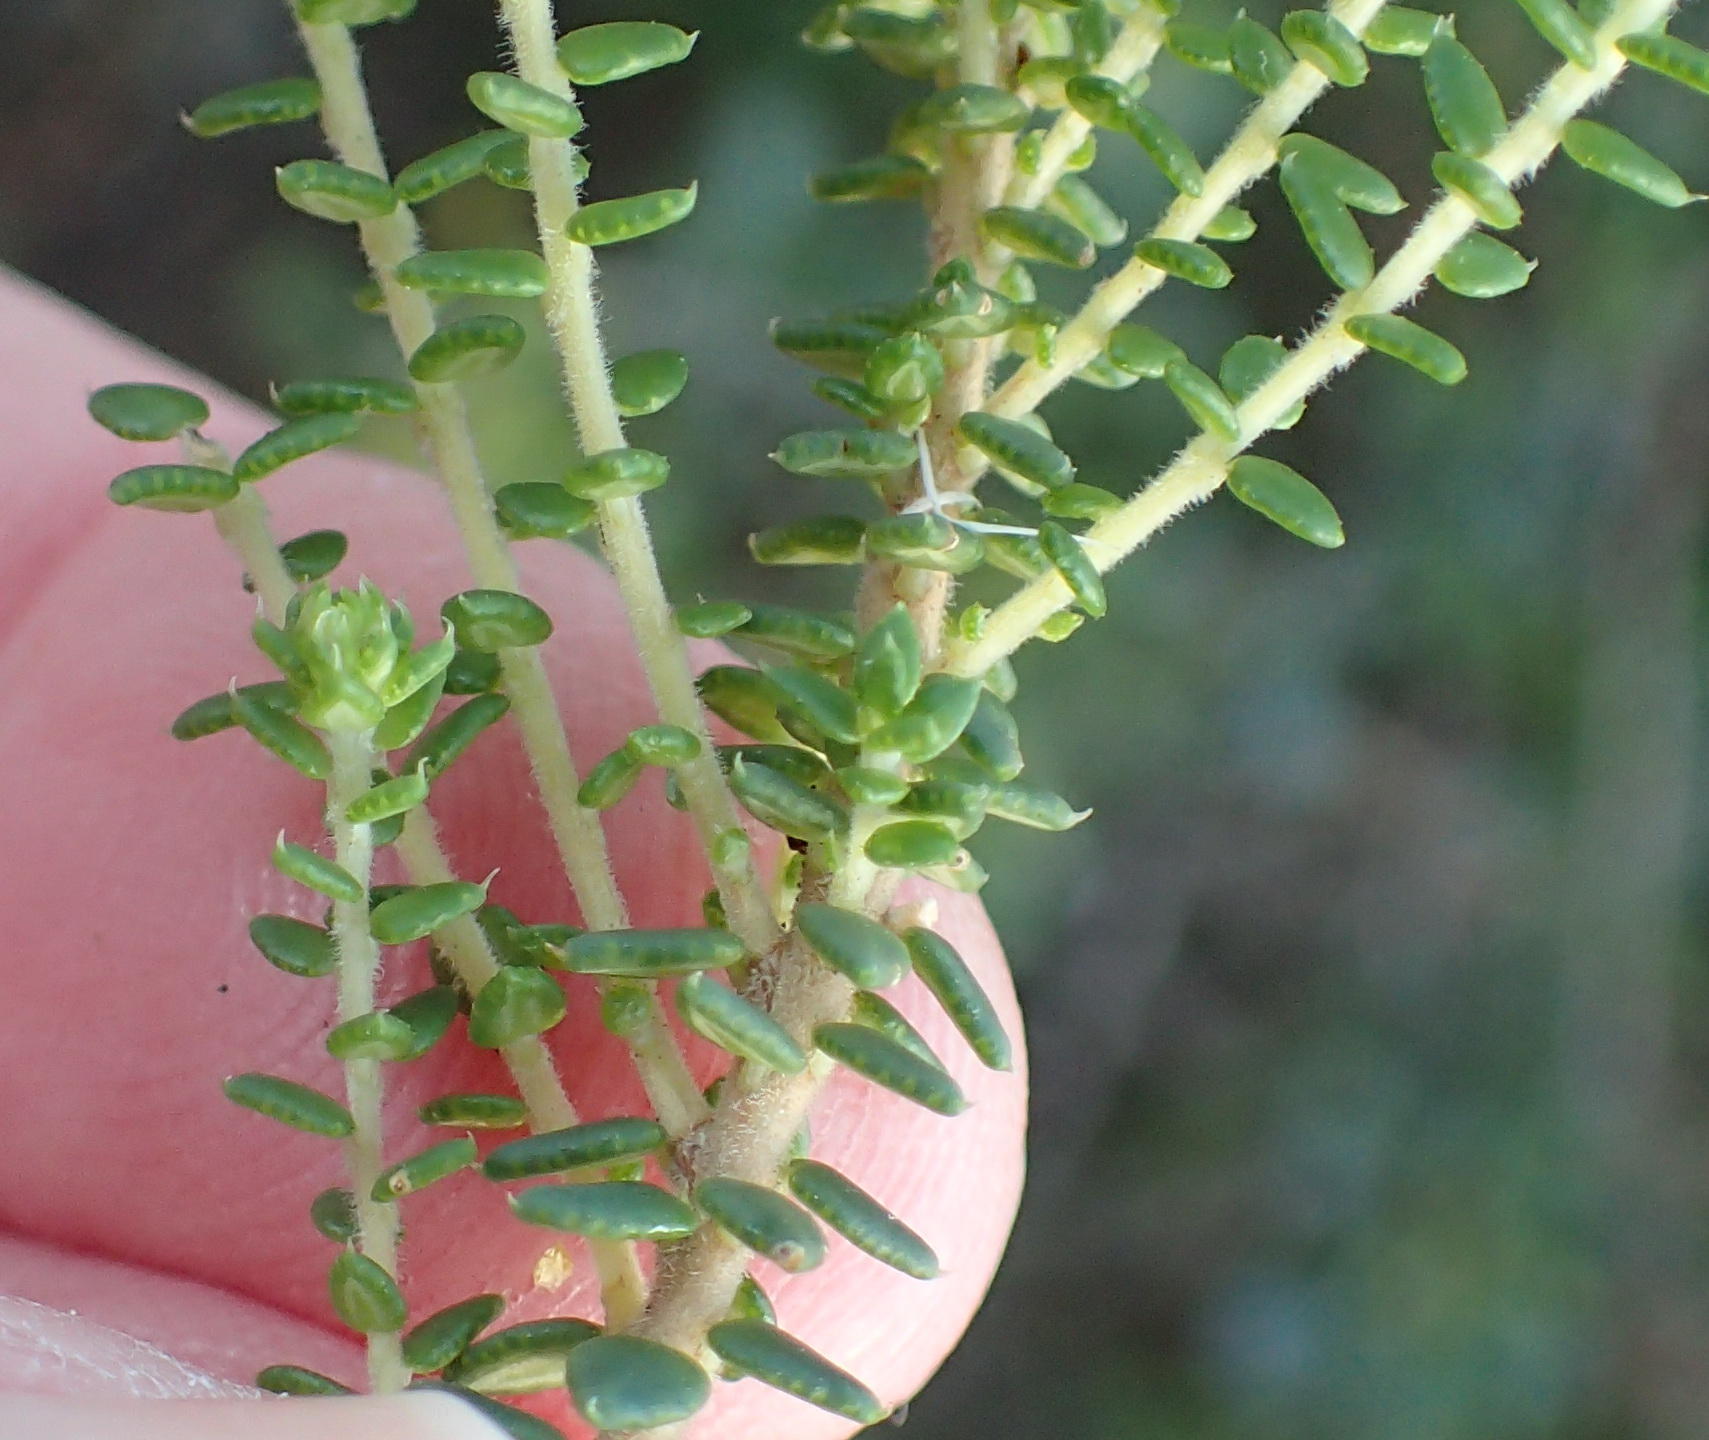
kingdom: Plantae
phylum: Tracheophyta
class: Magnoliopsida
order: Sapindales
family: Rutaceae
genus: Agathosma
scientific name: Agathosma apiculata
